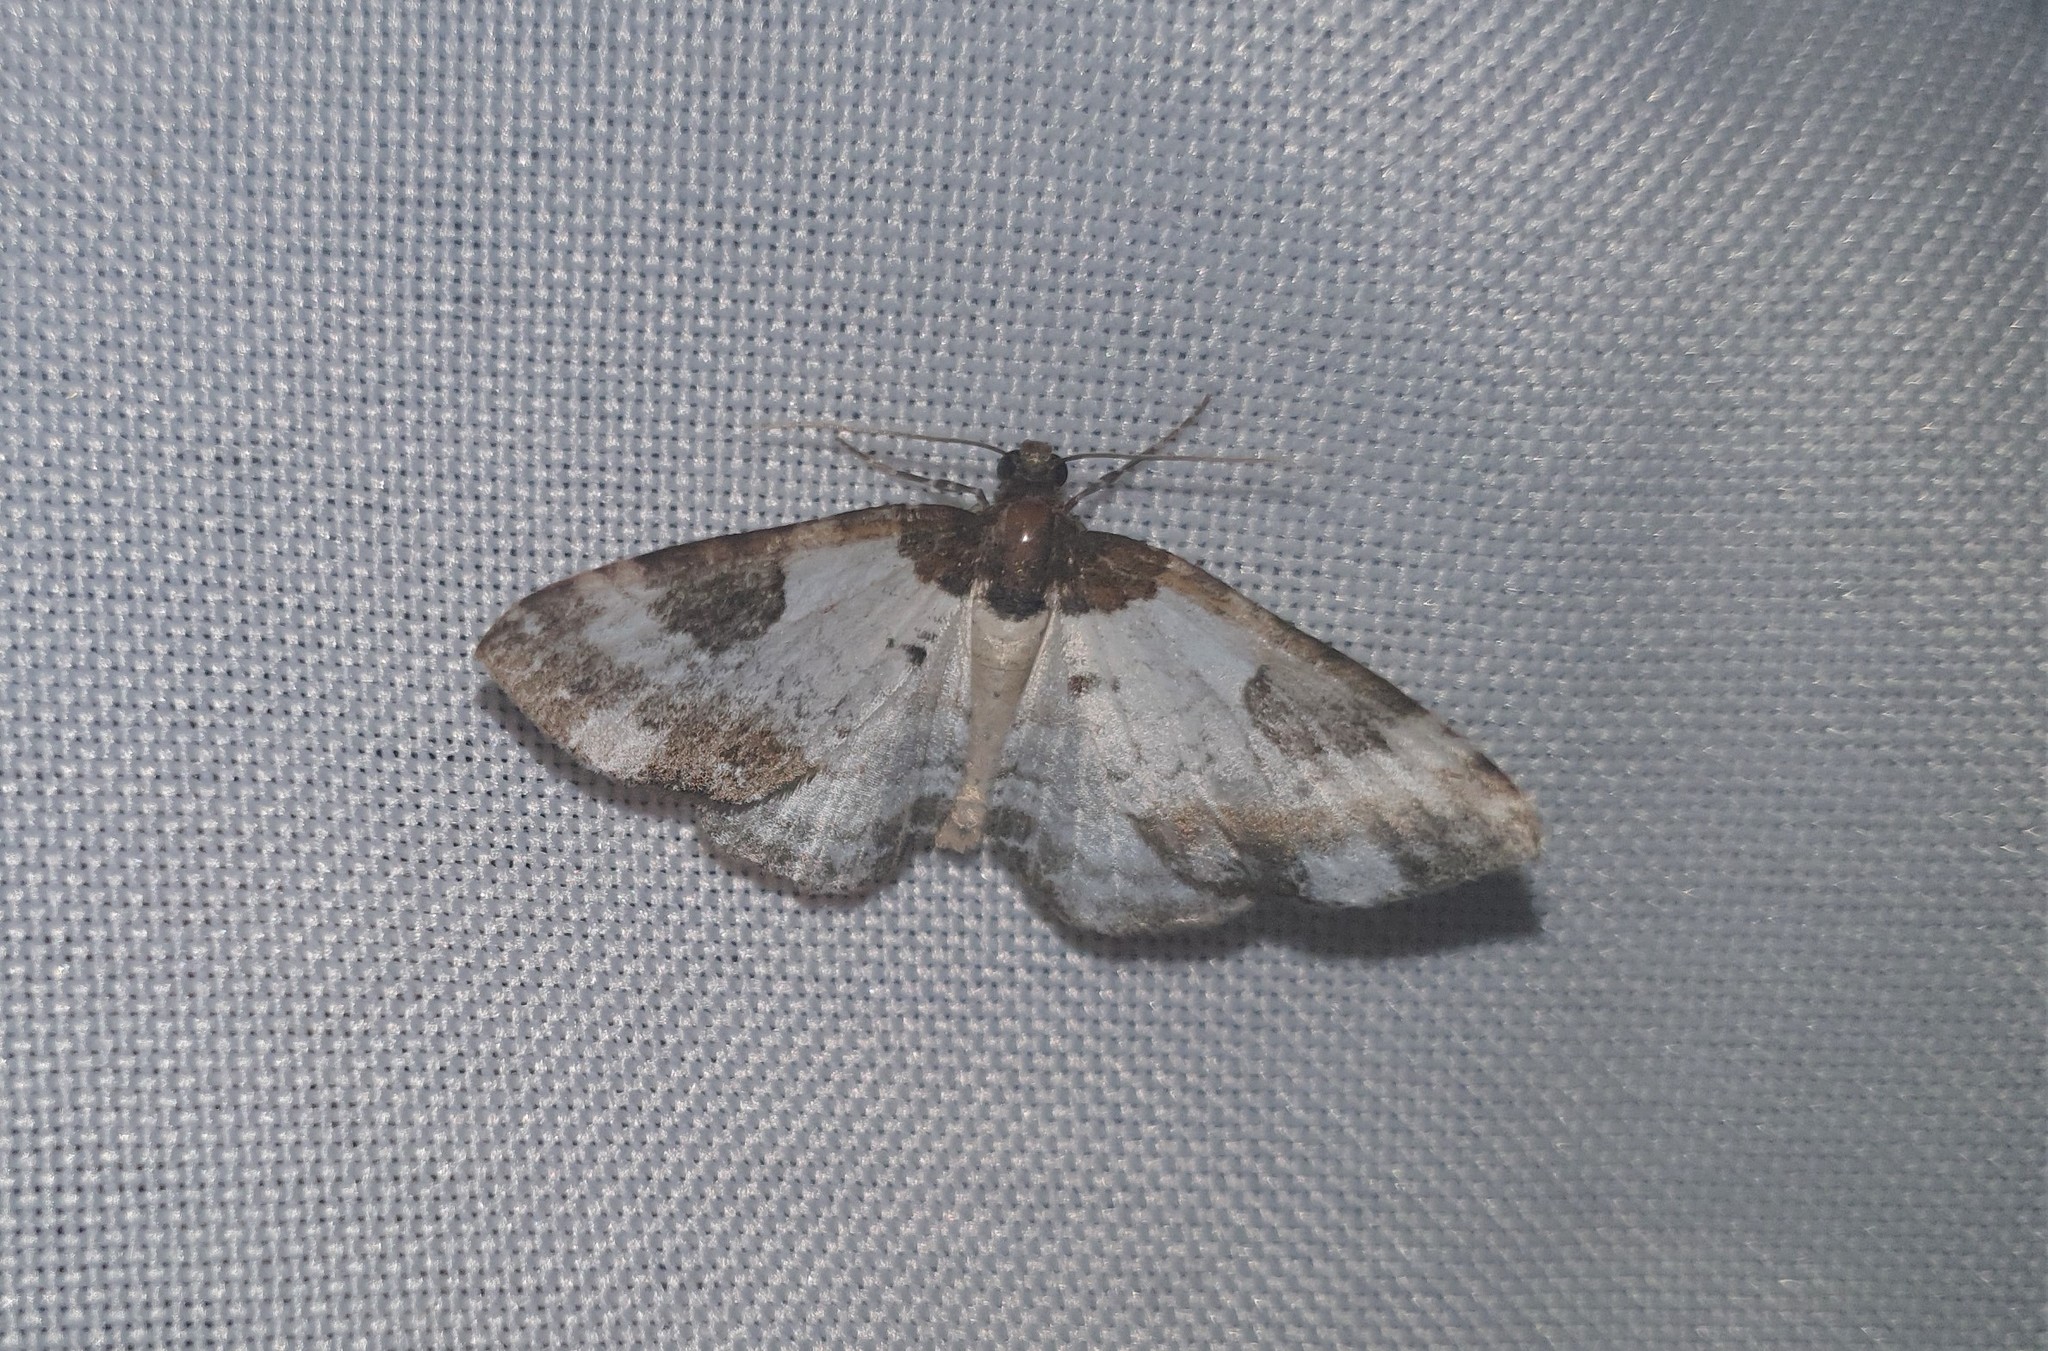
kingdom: Animalia
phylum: Arthropoda
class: Insecta
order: Lepidoptera
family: Geometridae
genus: Melanthia
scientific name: Melanthia procellata
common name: Pretty chalk carpet
